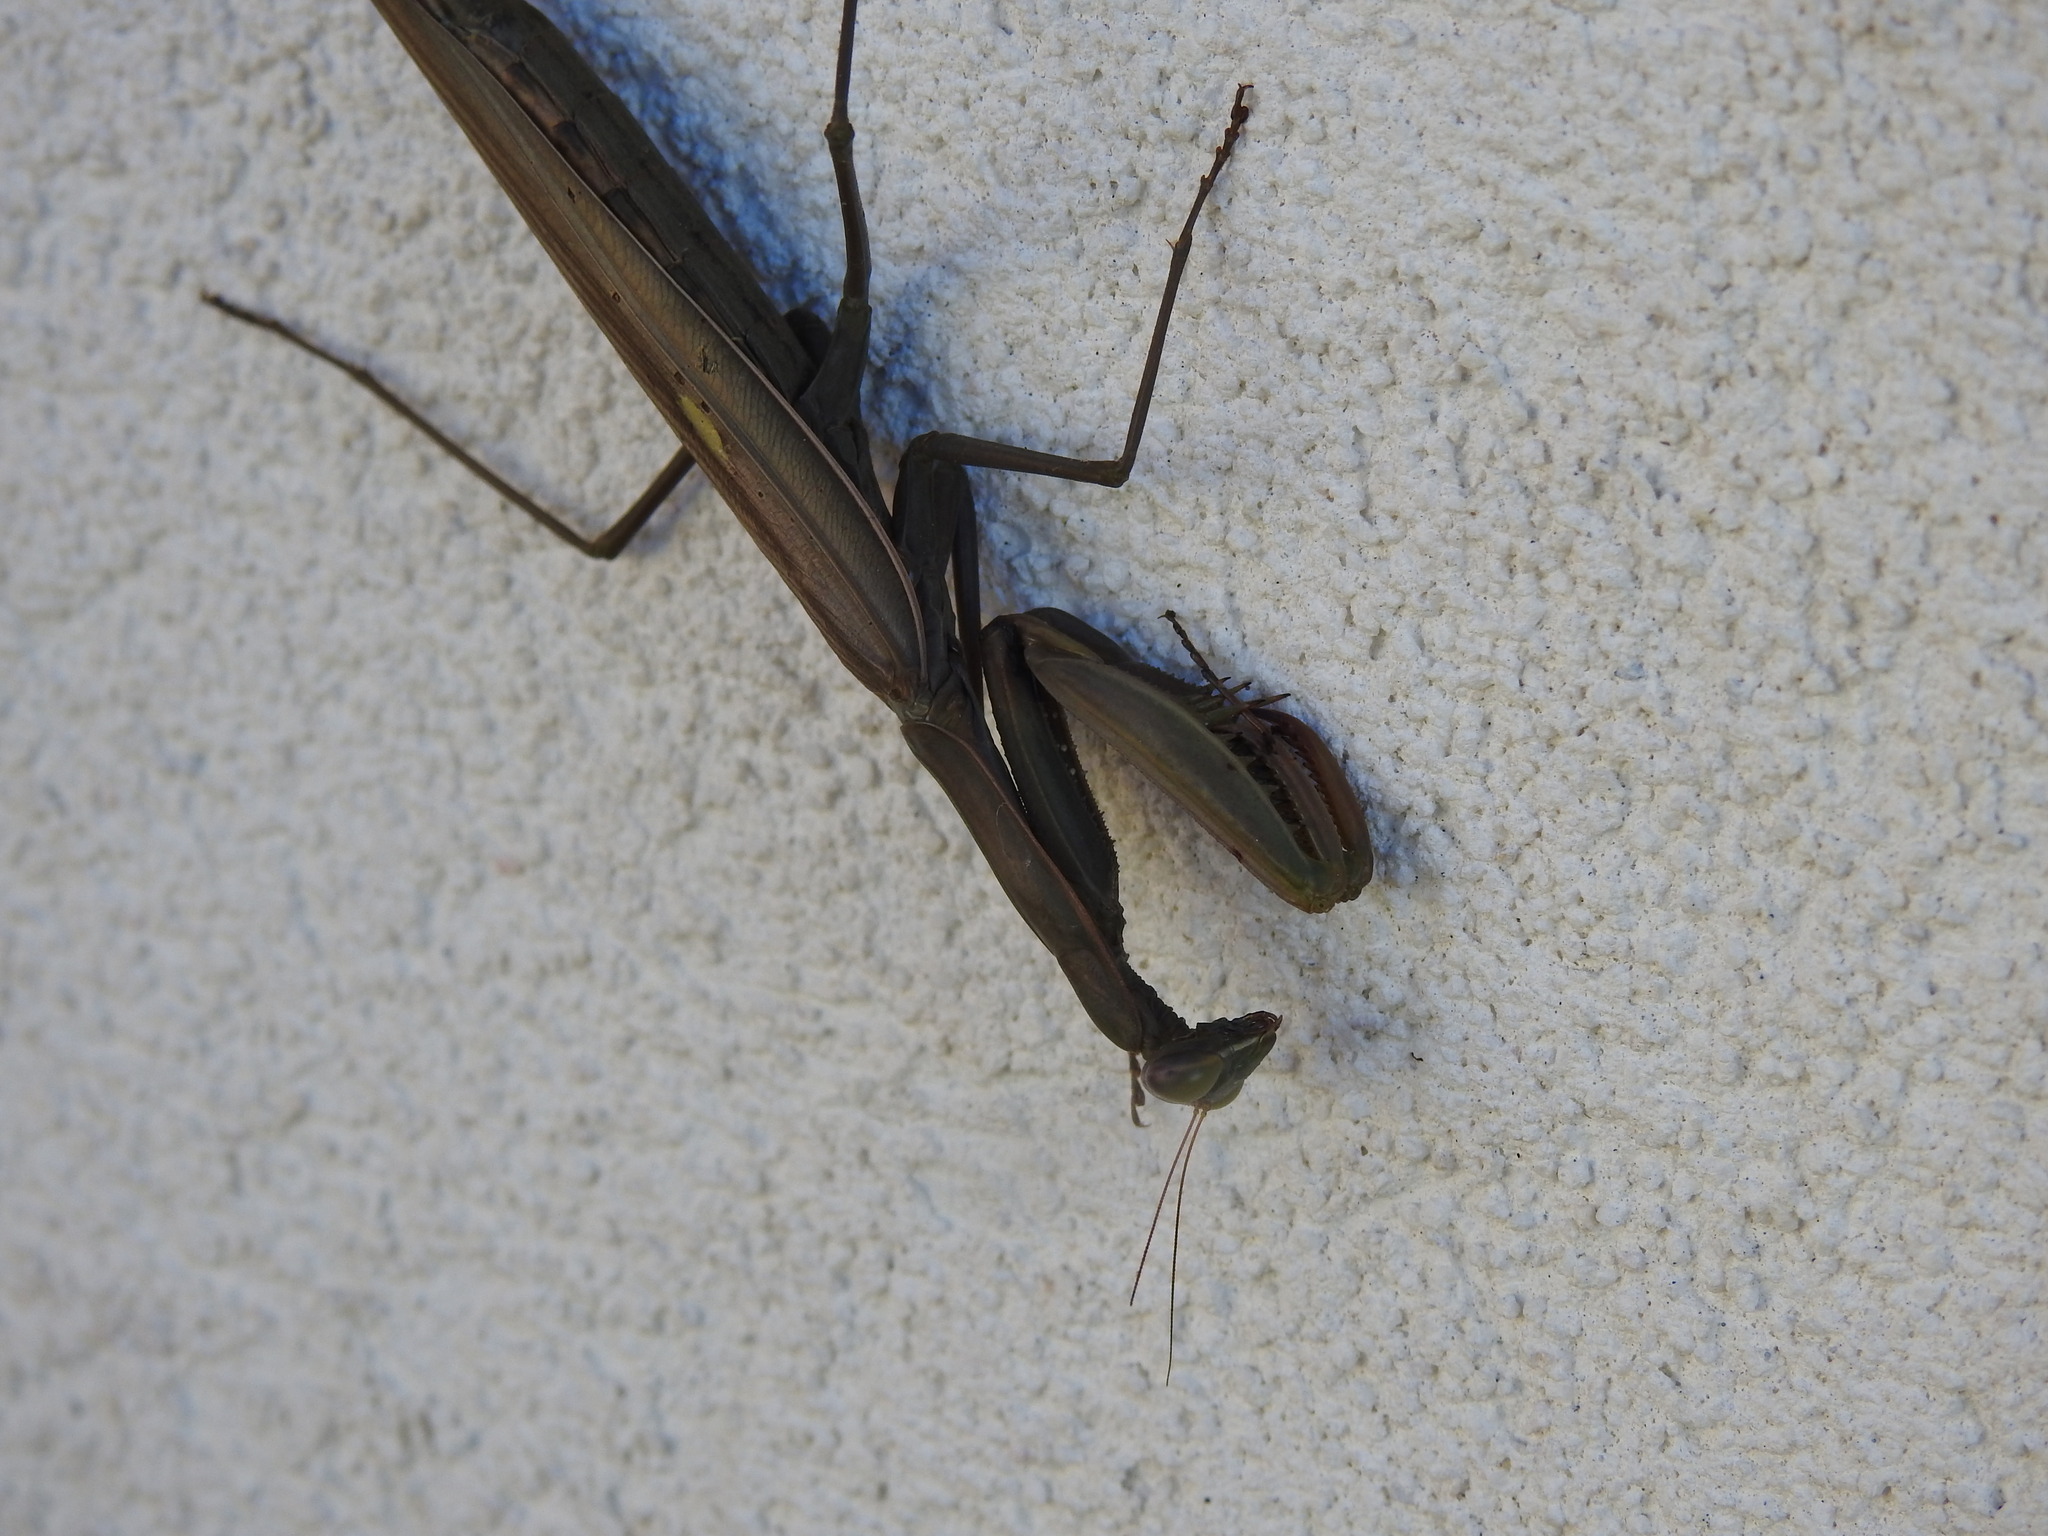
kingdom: Animalia
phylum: Arthropoda
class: Insecta
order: Mantodea
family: Mantidae
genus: Mantis
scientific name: Mantis religiosa
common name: Praying mantis
